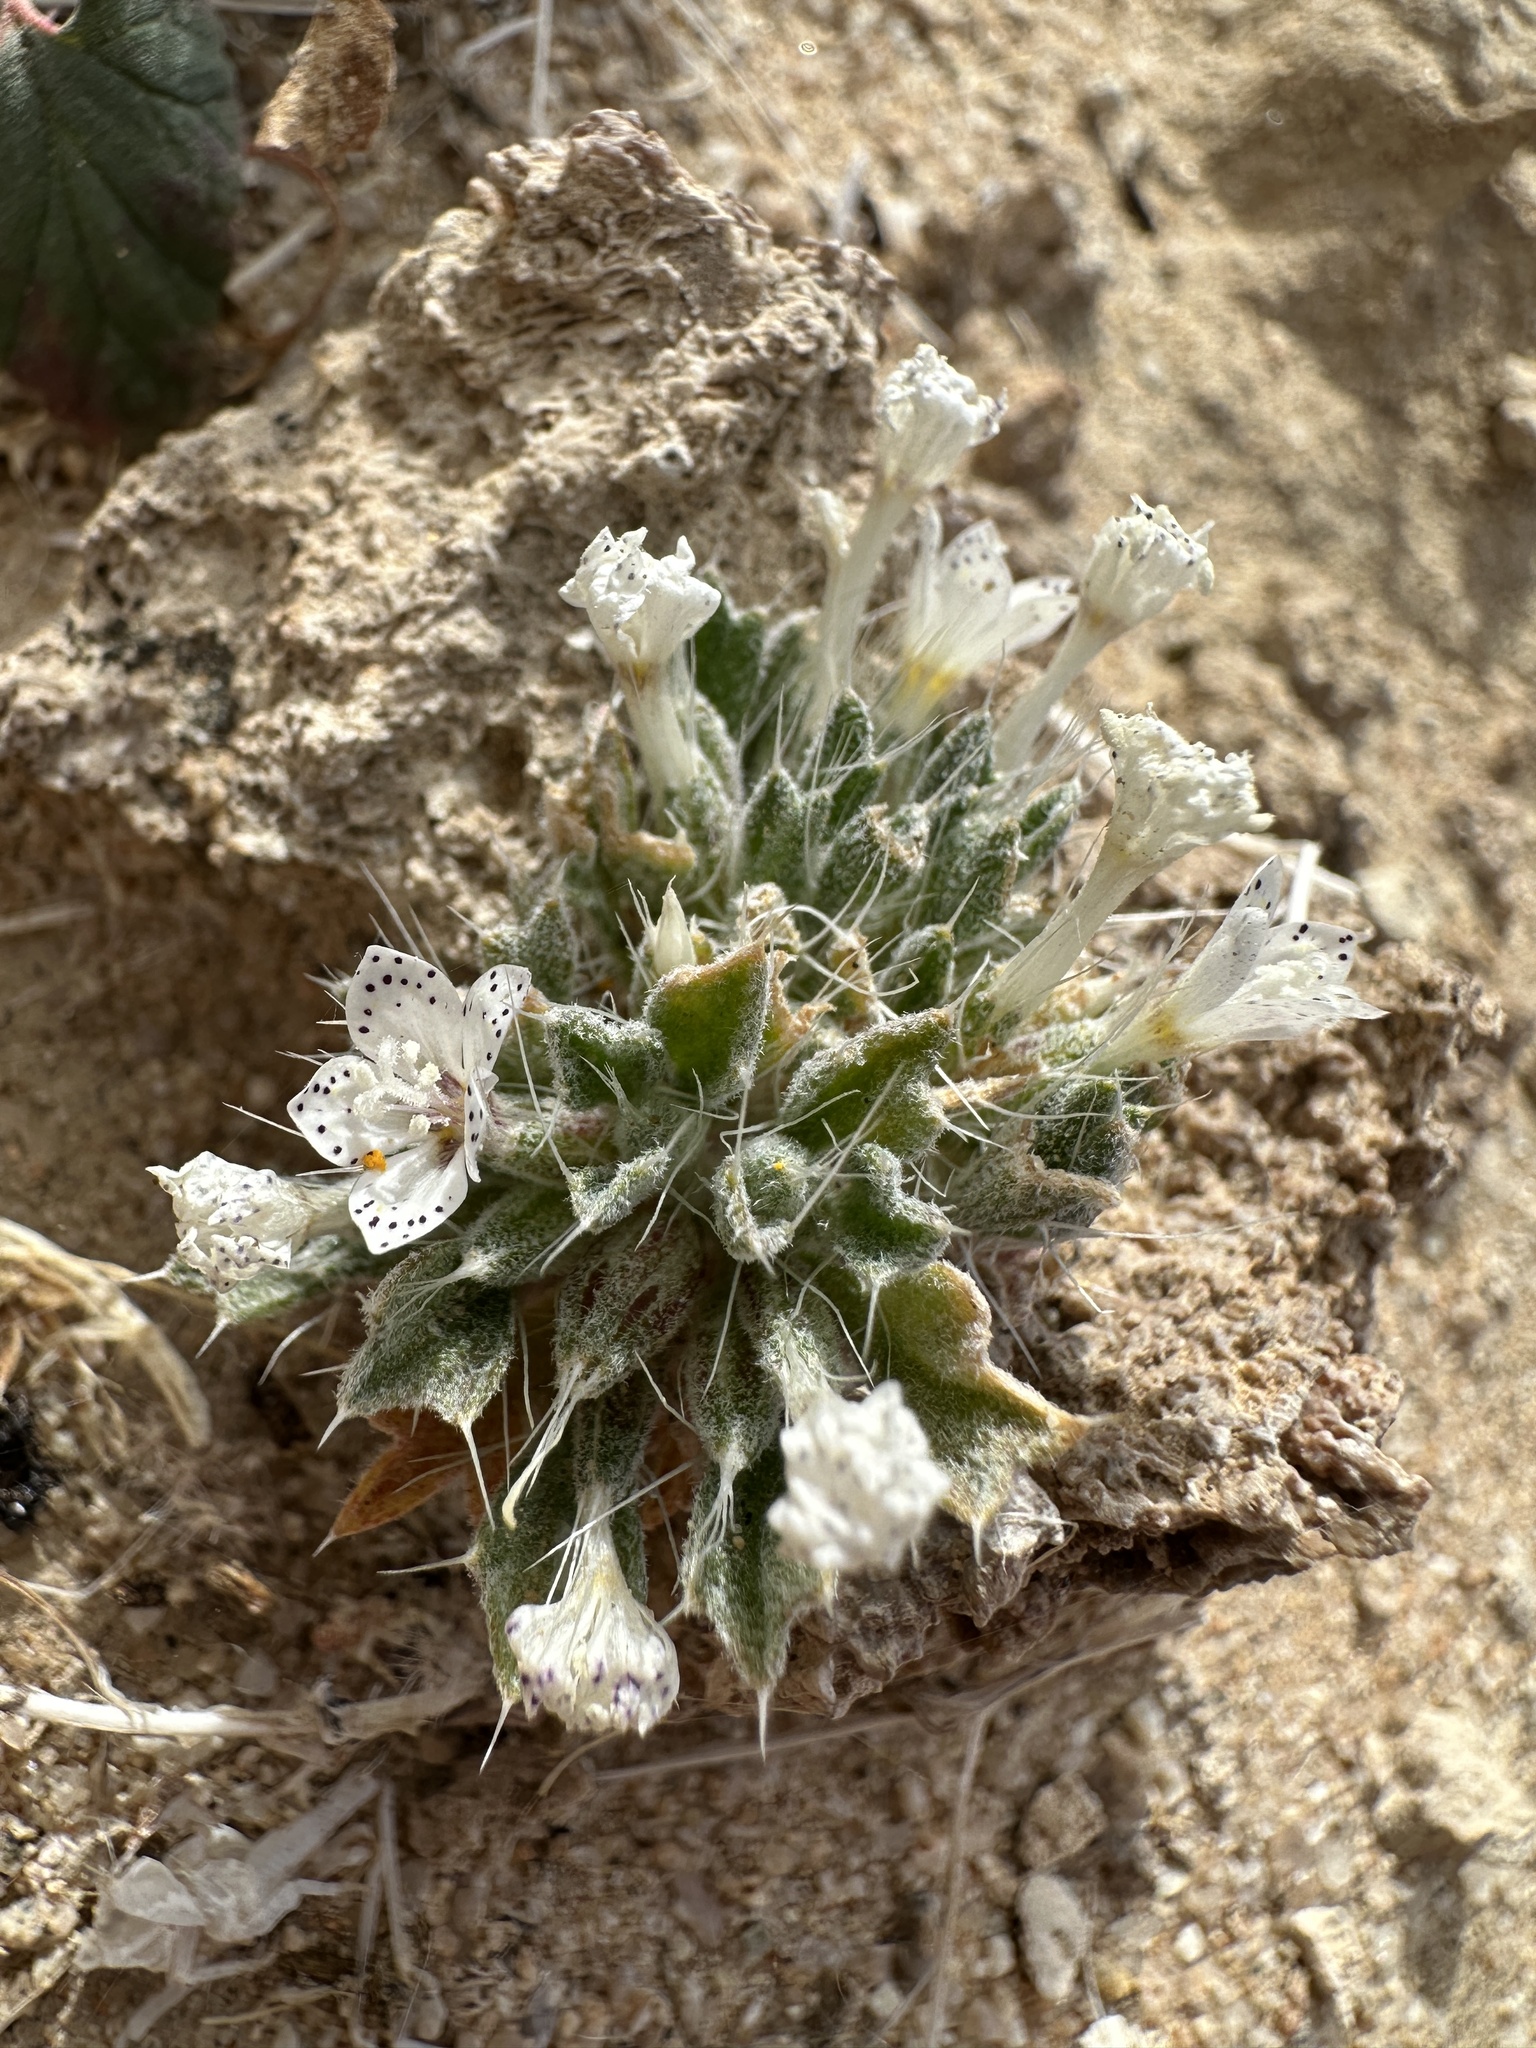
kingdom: Plantae
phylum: Tracheophyta
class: Magnoliopsida
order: Ericales
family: Polemoniaceae
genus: Langloisia
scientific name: Langloisia setosissima
